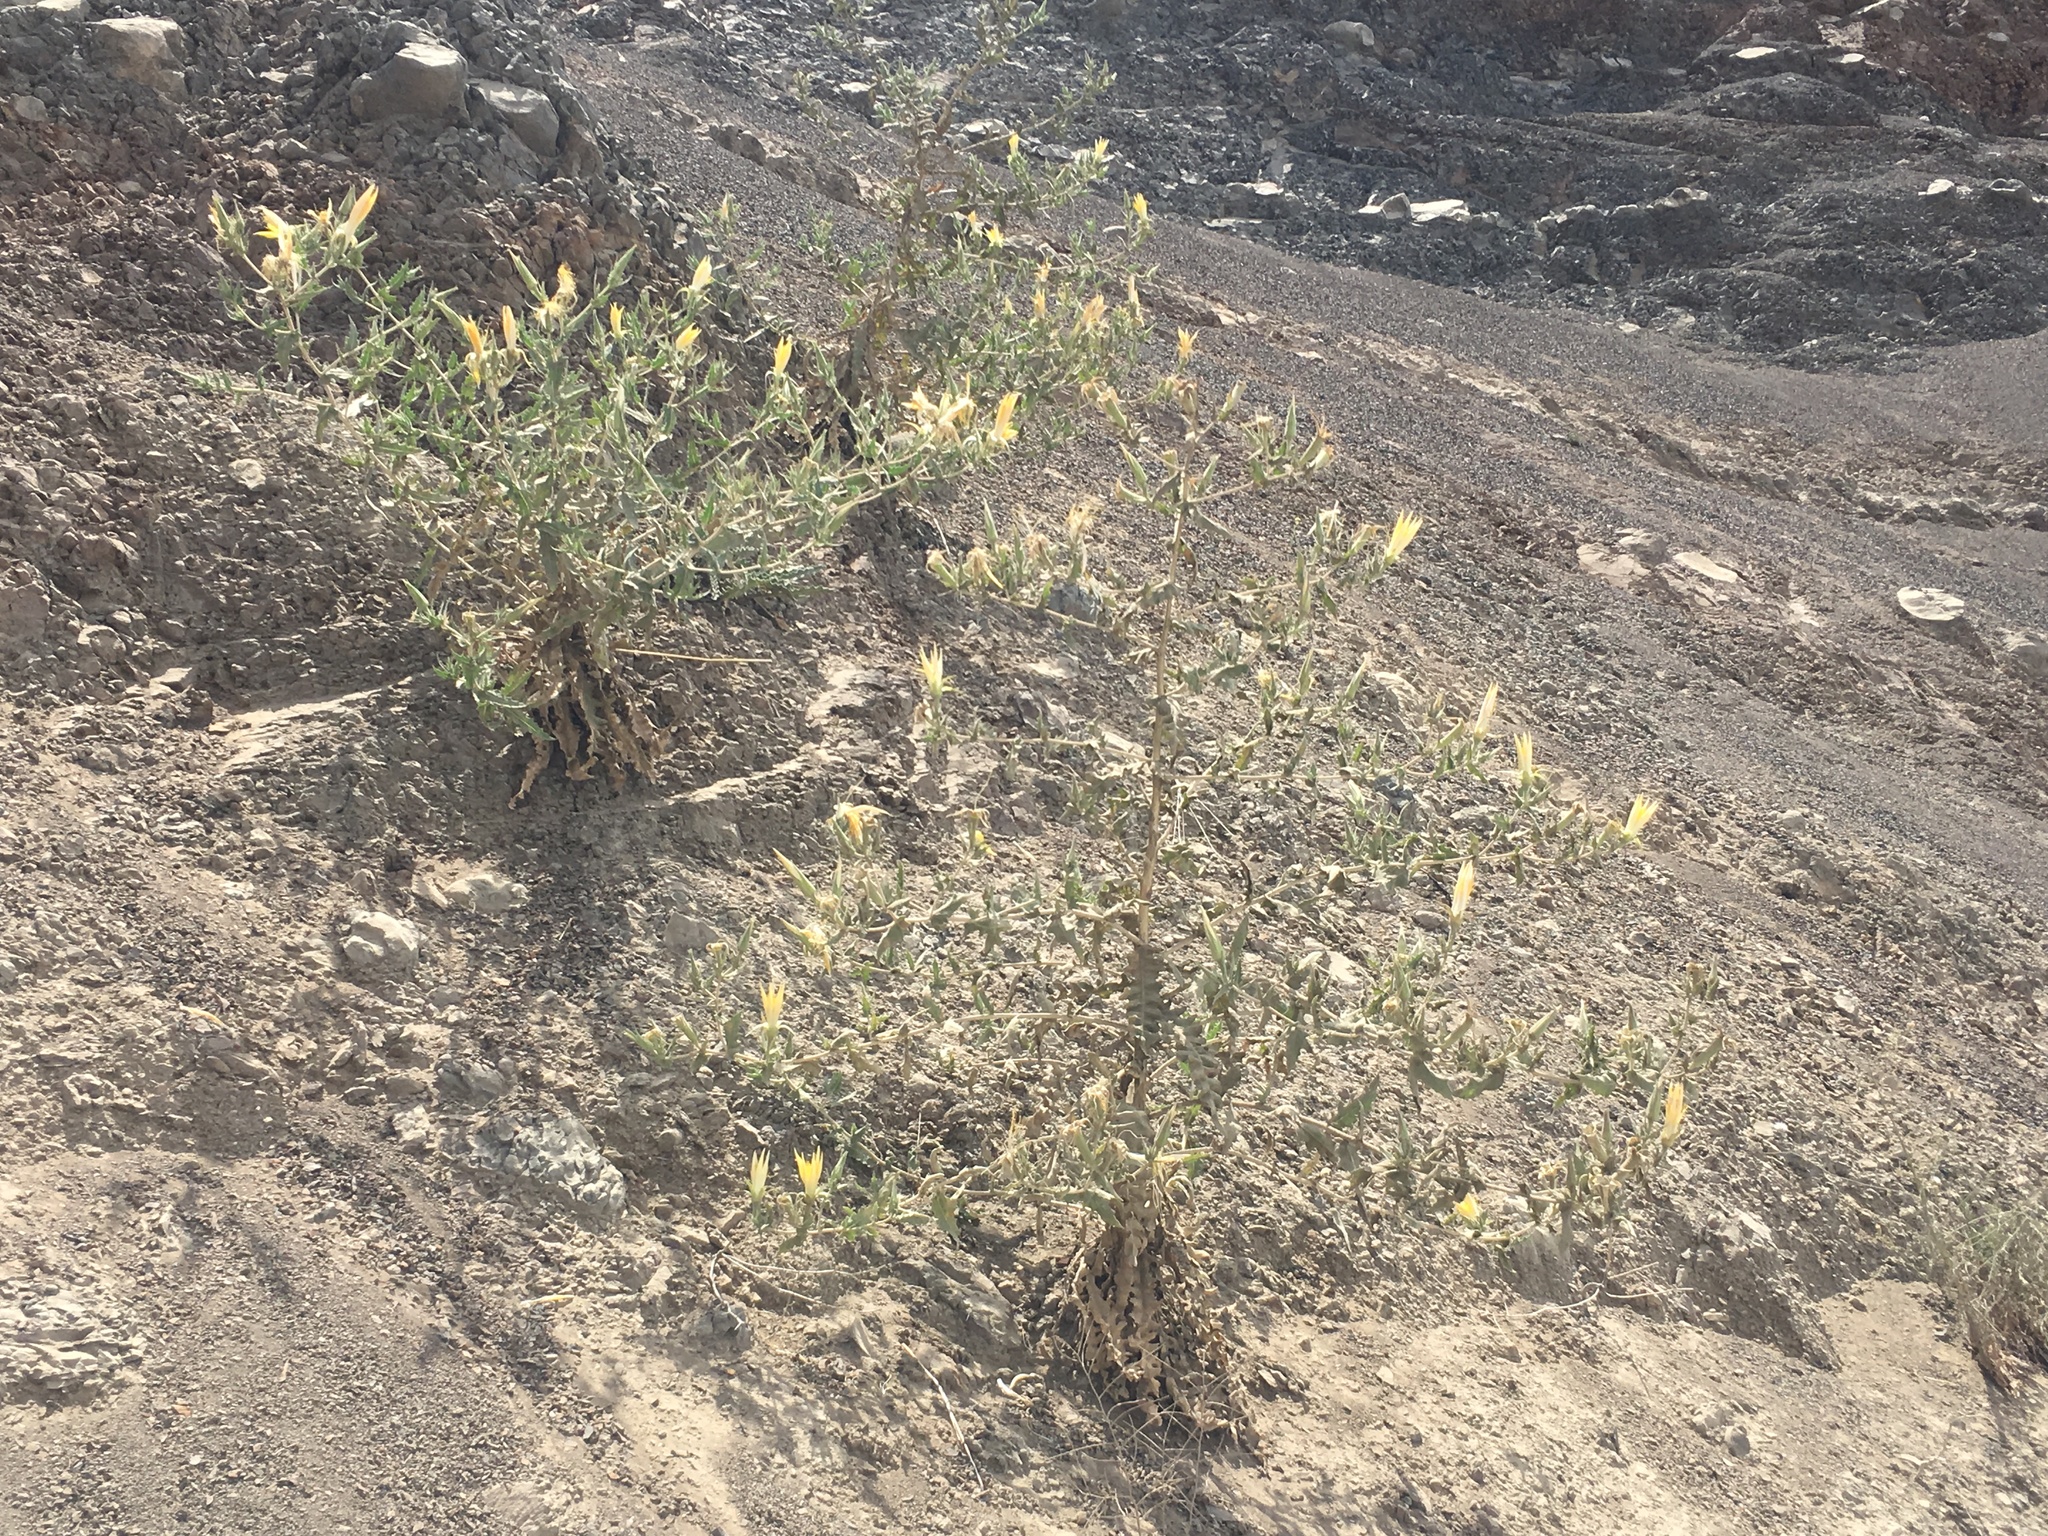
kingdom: Plantae
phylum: Tracheophyta
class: Magnoliopsida
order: Cornales
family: Loasaceae
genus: Mentzelia
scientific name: Mentzelia laevicaulis
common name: Smooth-stem blazingstar
